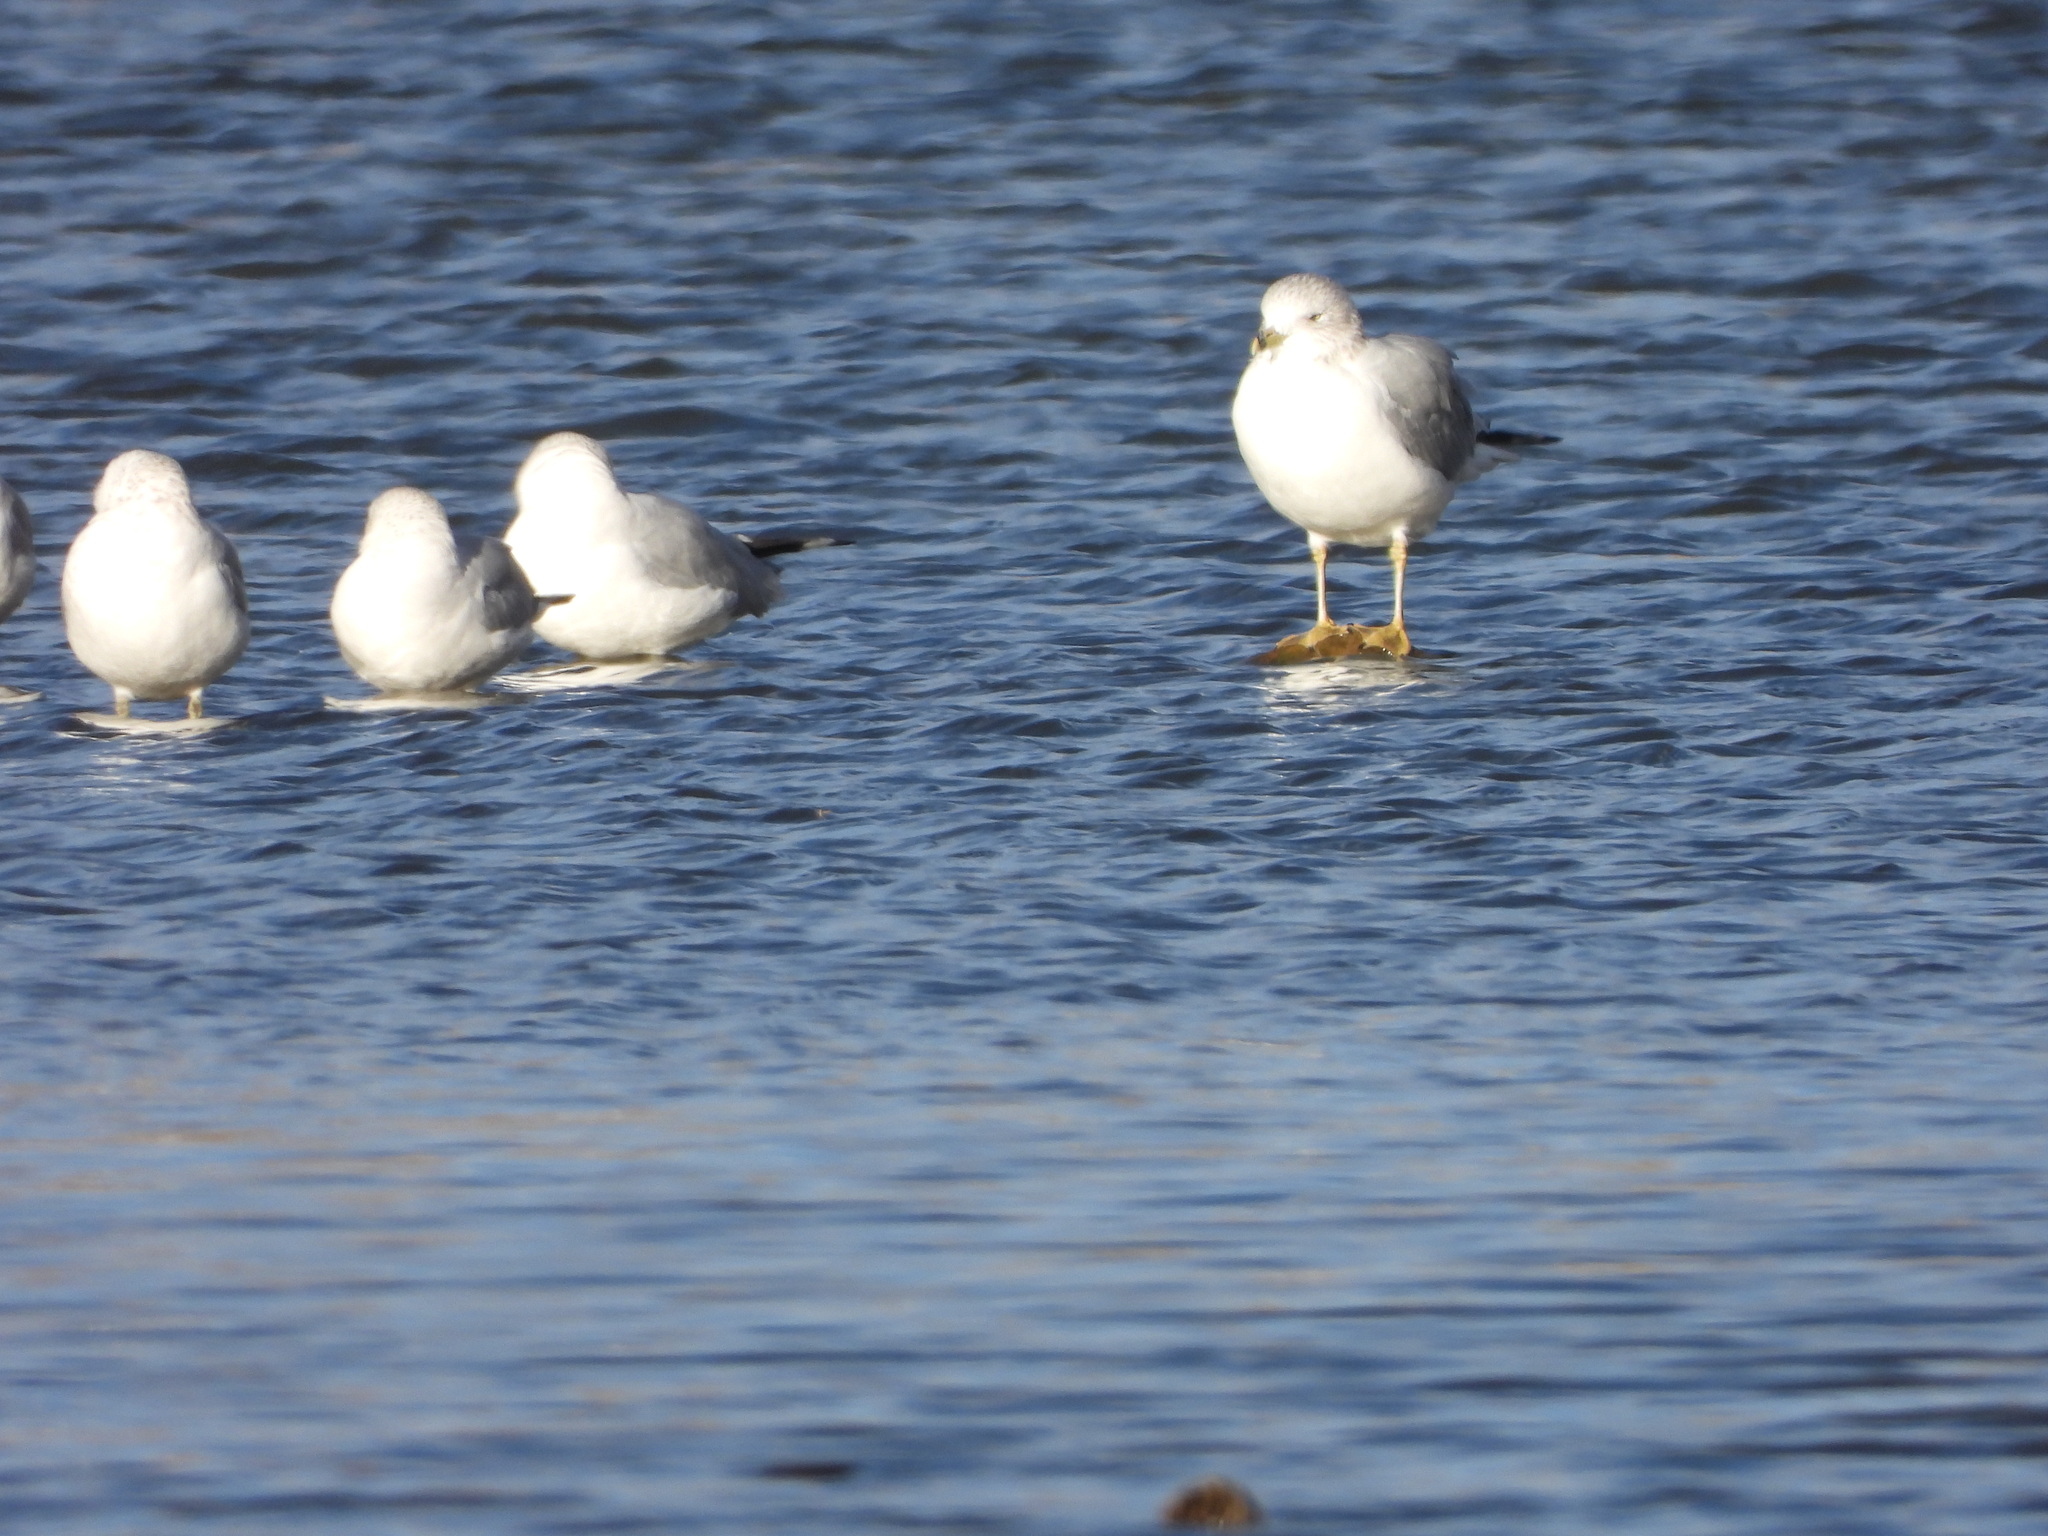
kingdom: Animalia
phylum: Chordata
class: Aves
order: Charadriiformes
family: Laridae
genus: Larus
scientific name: Larus delawarensis
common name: Ring-billed gull
